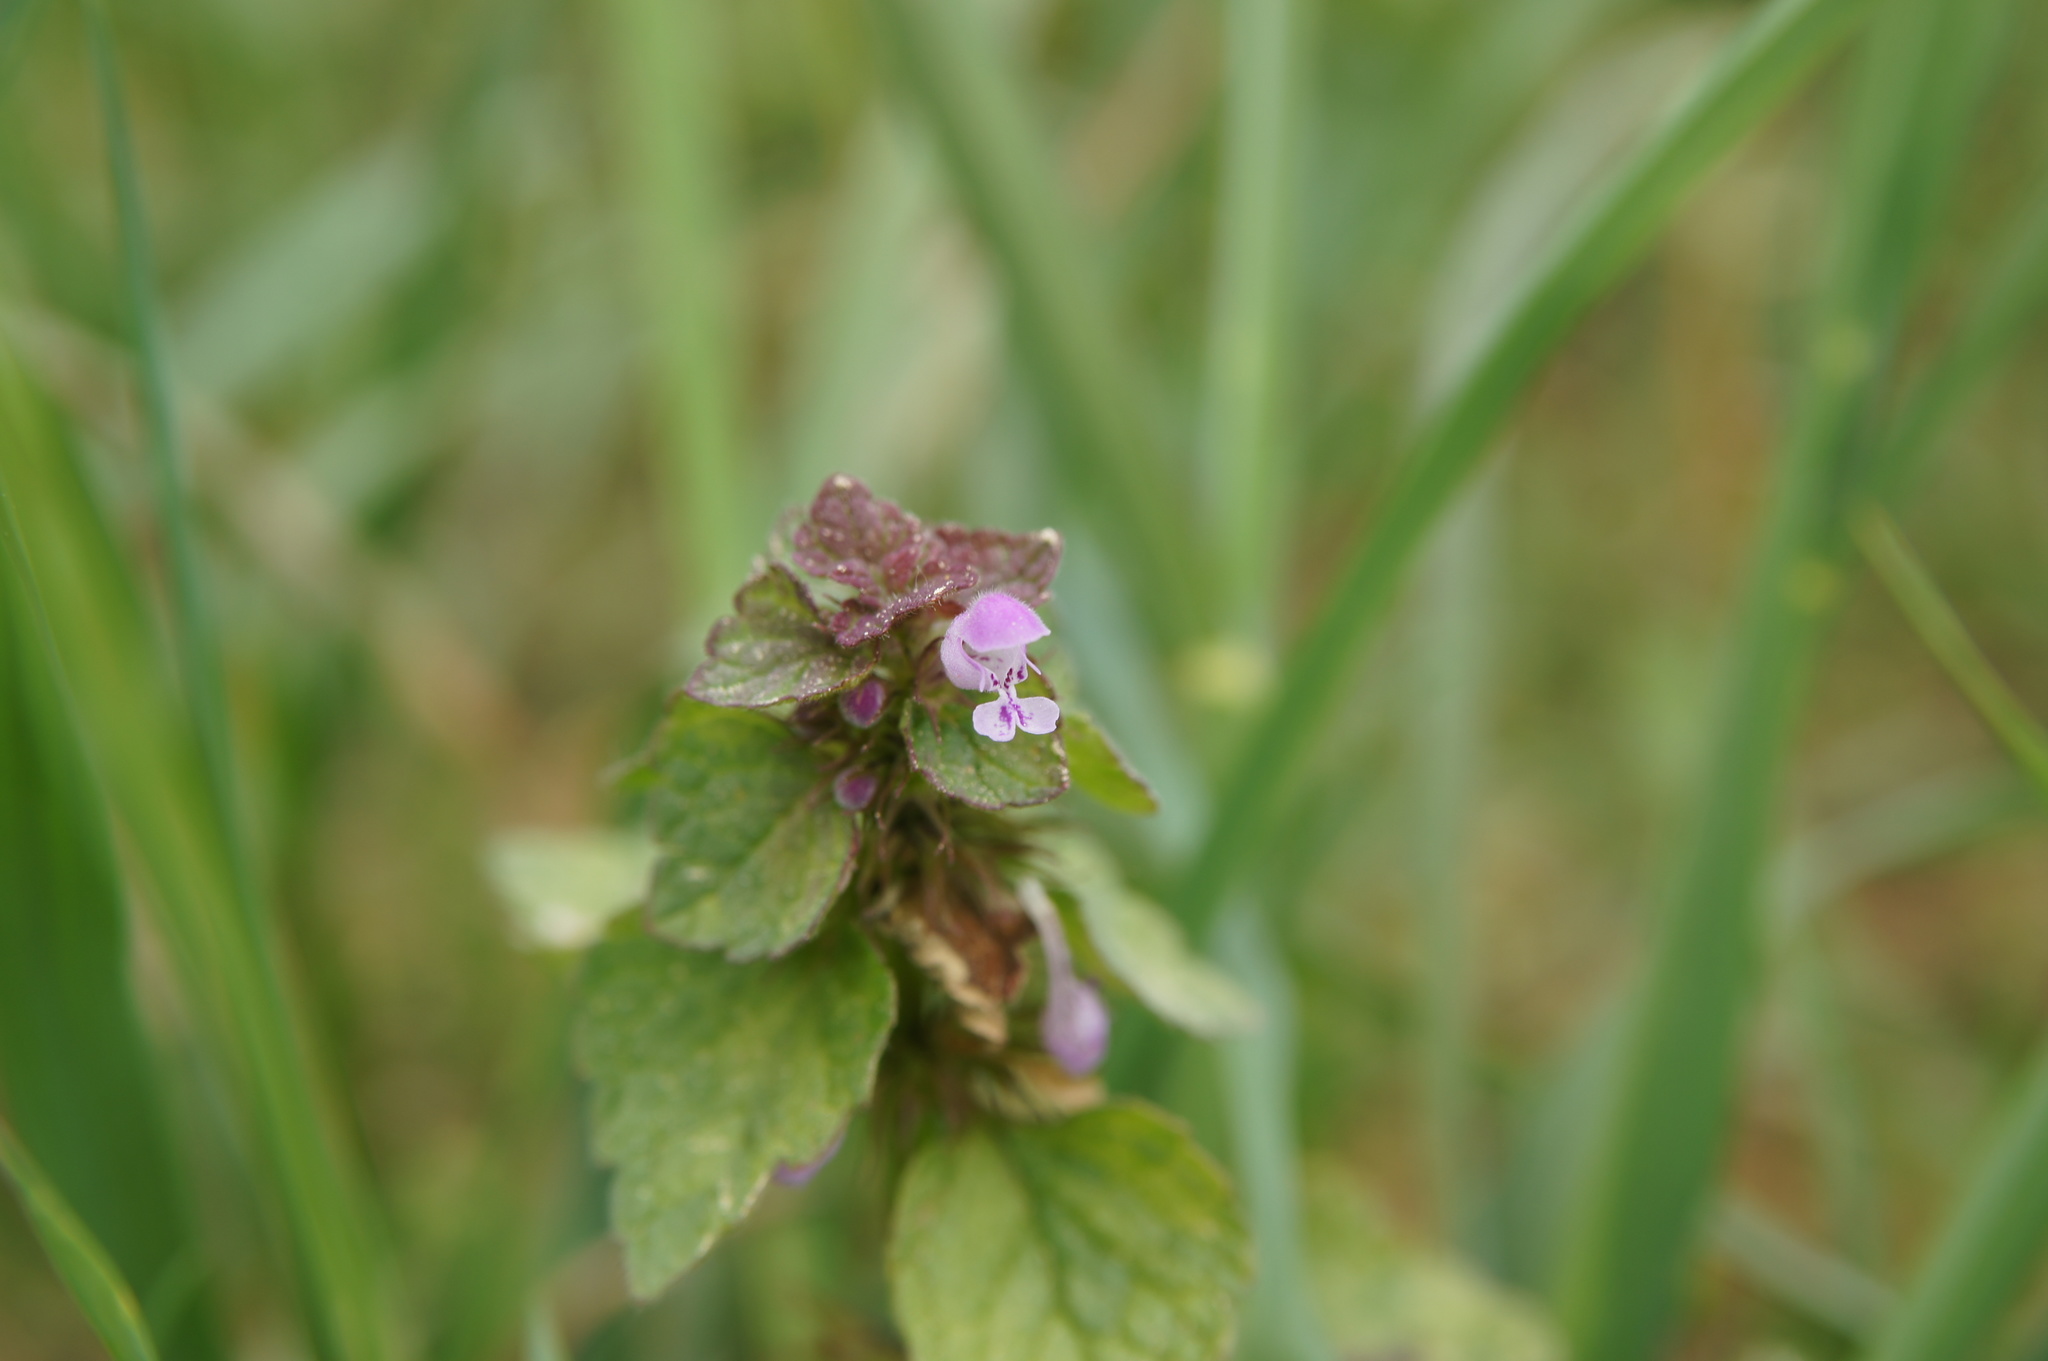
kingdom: Plantae
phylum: Tracheophyta
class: Magnoliopsida
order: Lamiales
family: Lamiaceae
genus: Lamium
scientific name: Lamium purpureum
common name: Red dead-nettle
